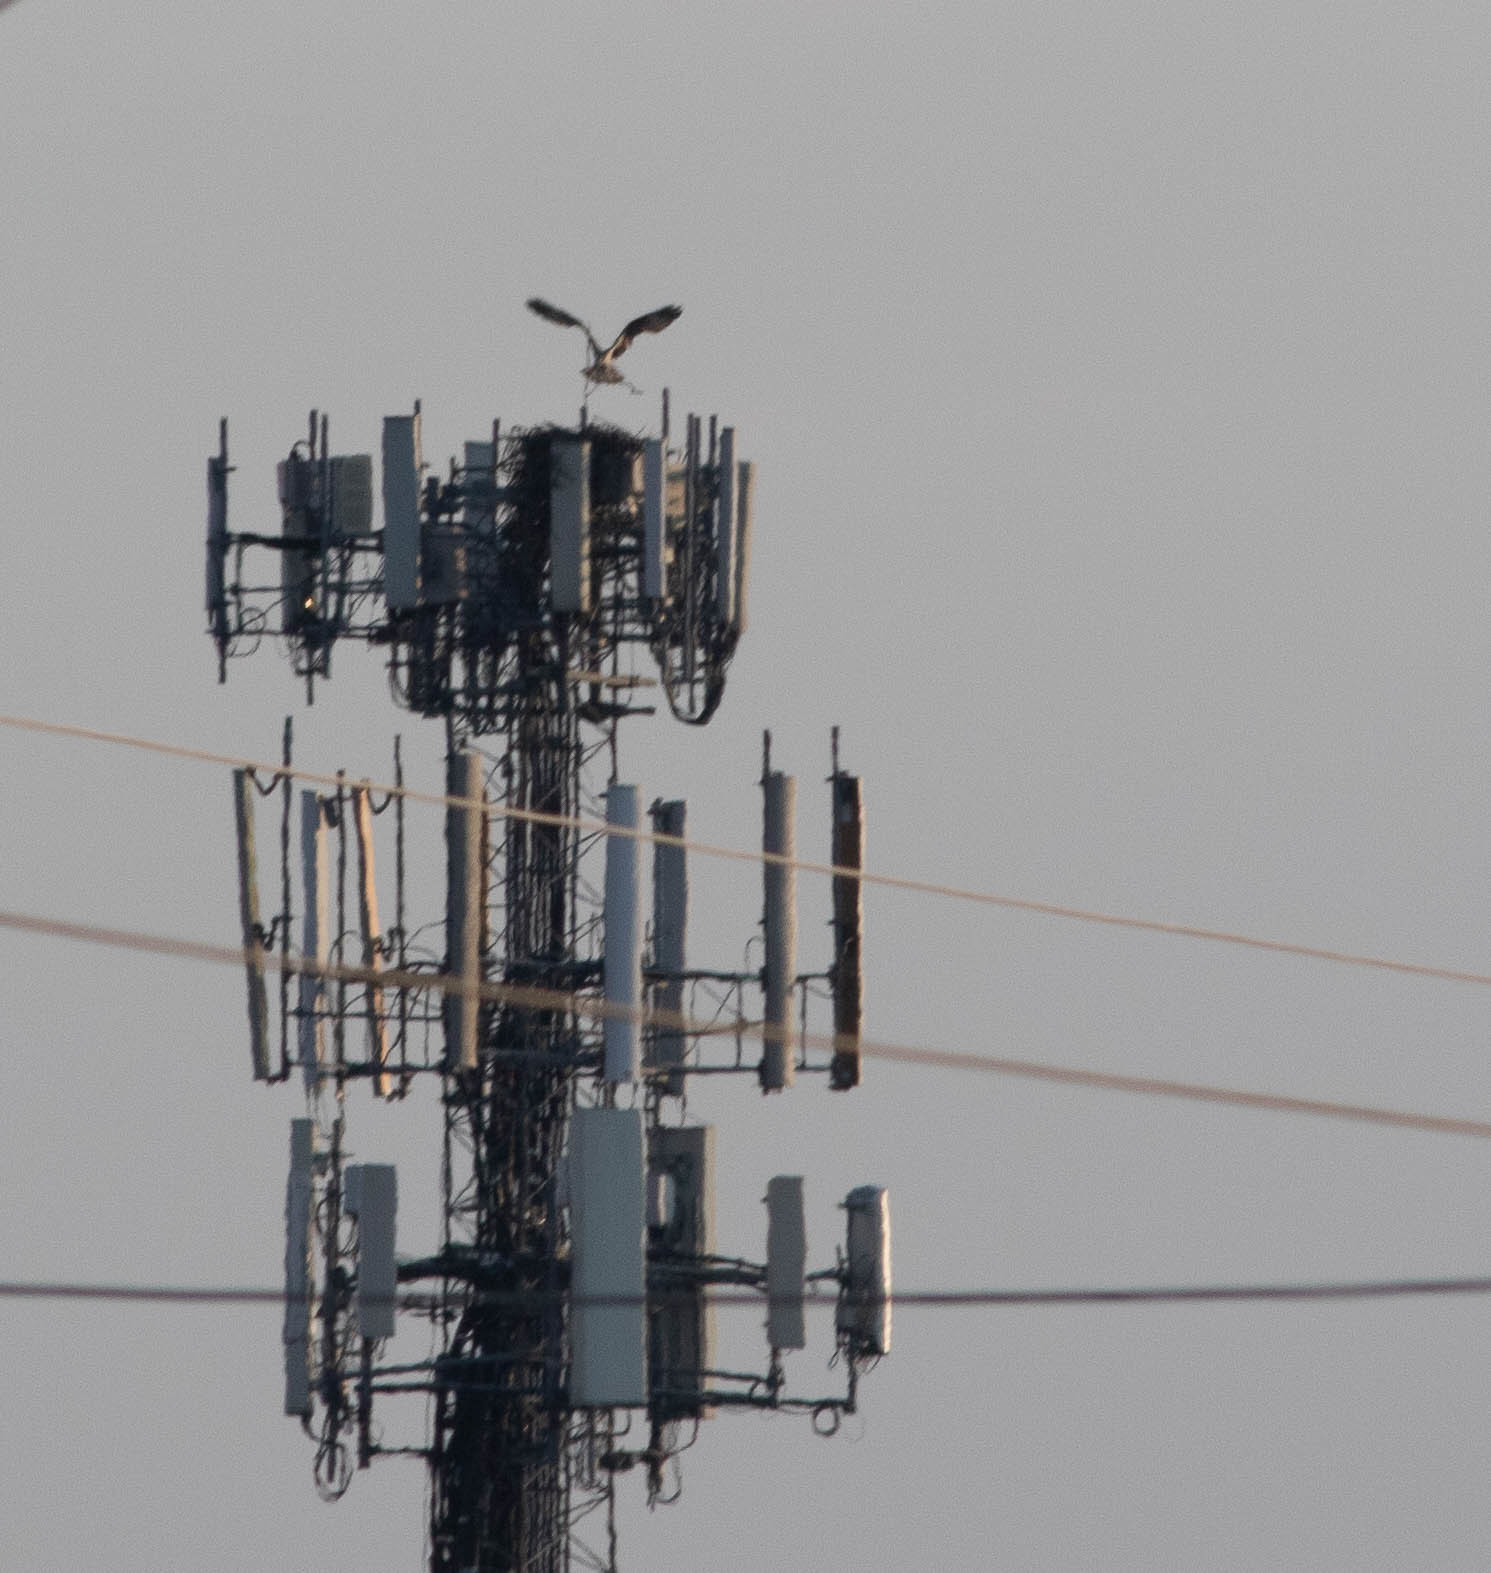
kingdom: Animalia
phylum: Chordata
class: Aves
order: Accipitriformes
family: Pandionidae
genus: Pandion
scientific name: Pandion haliaetus
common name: Osprey
